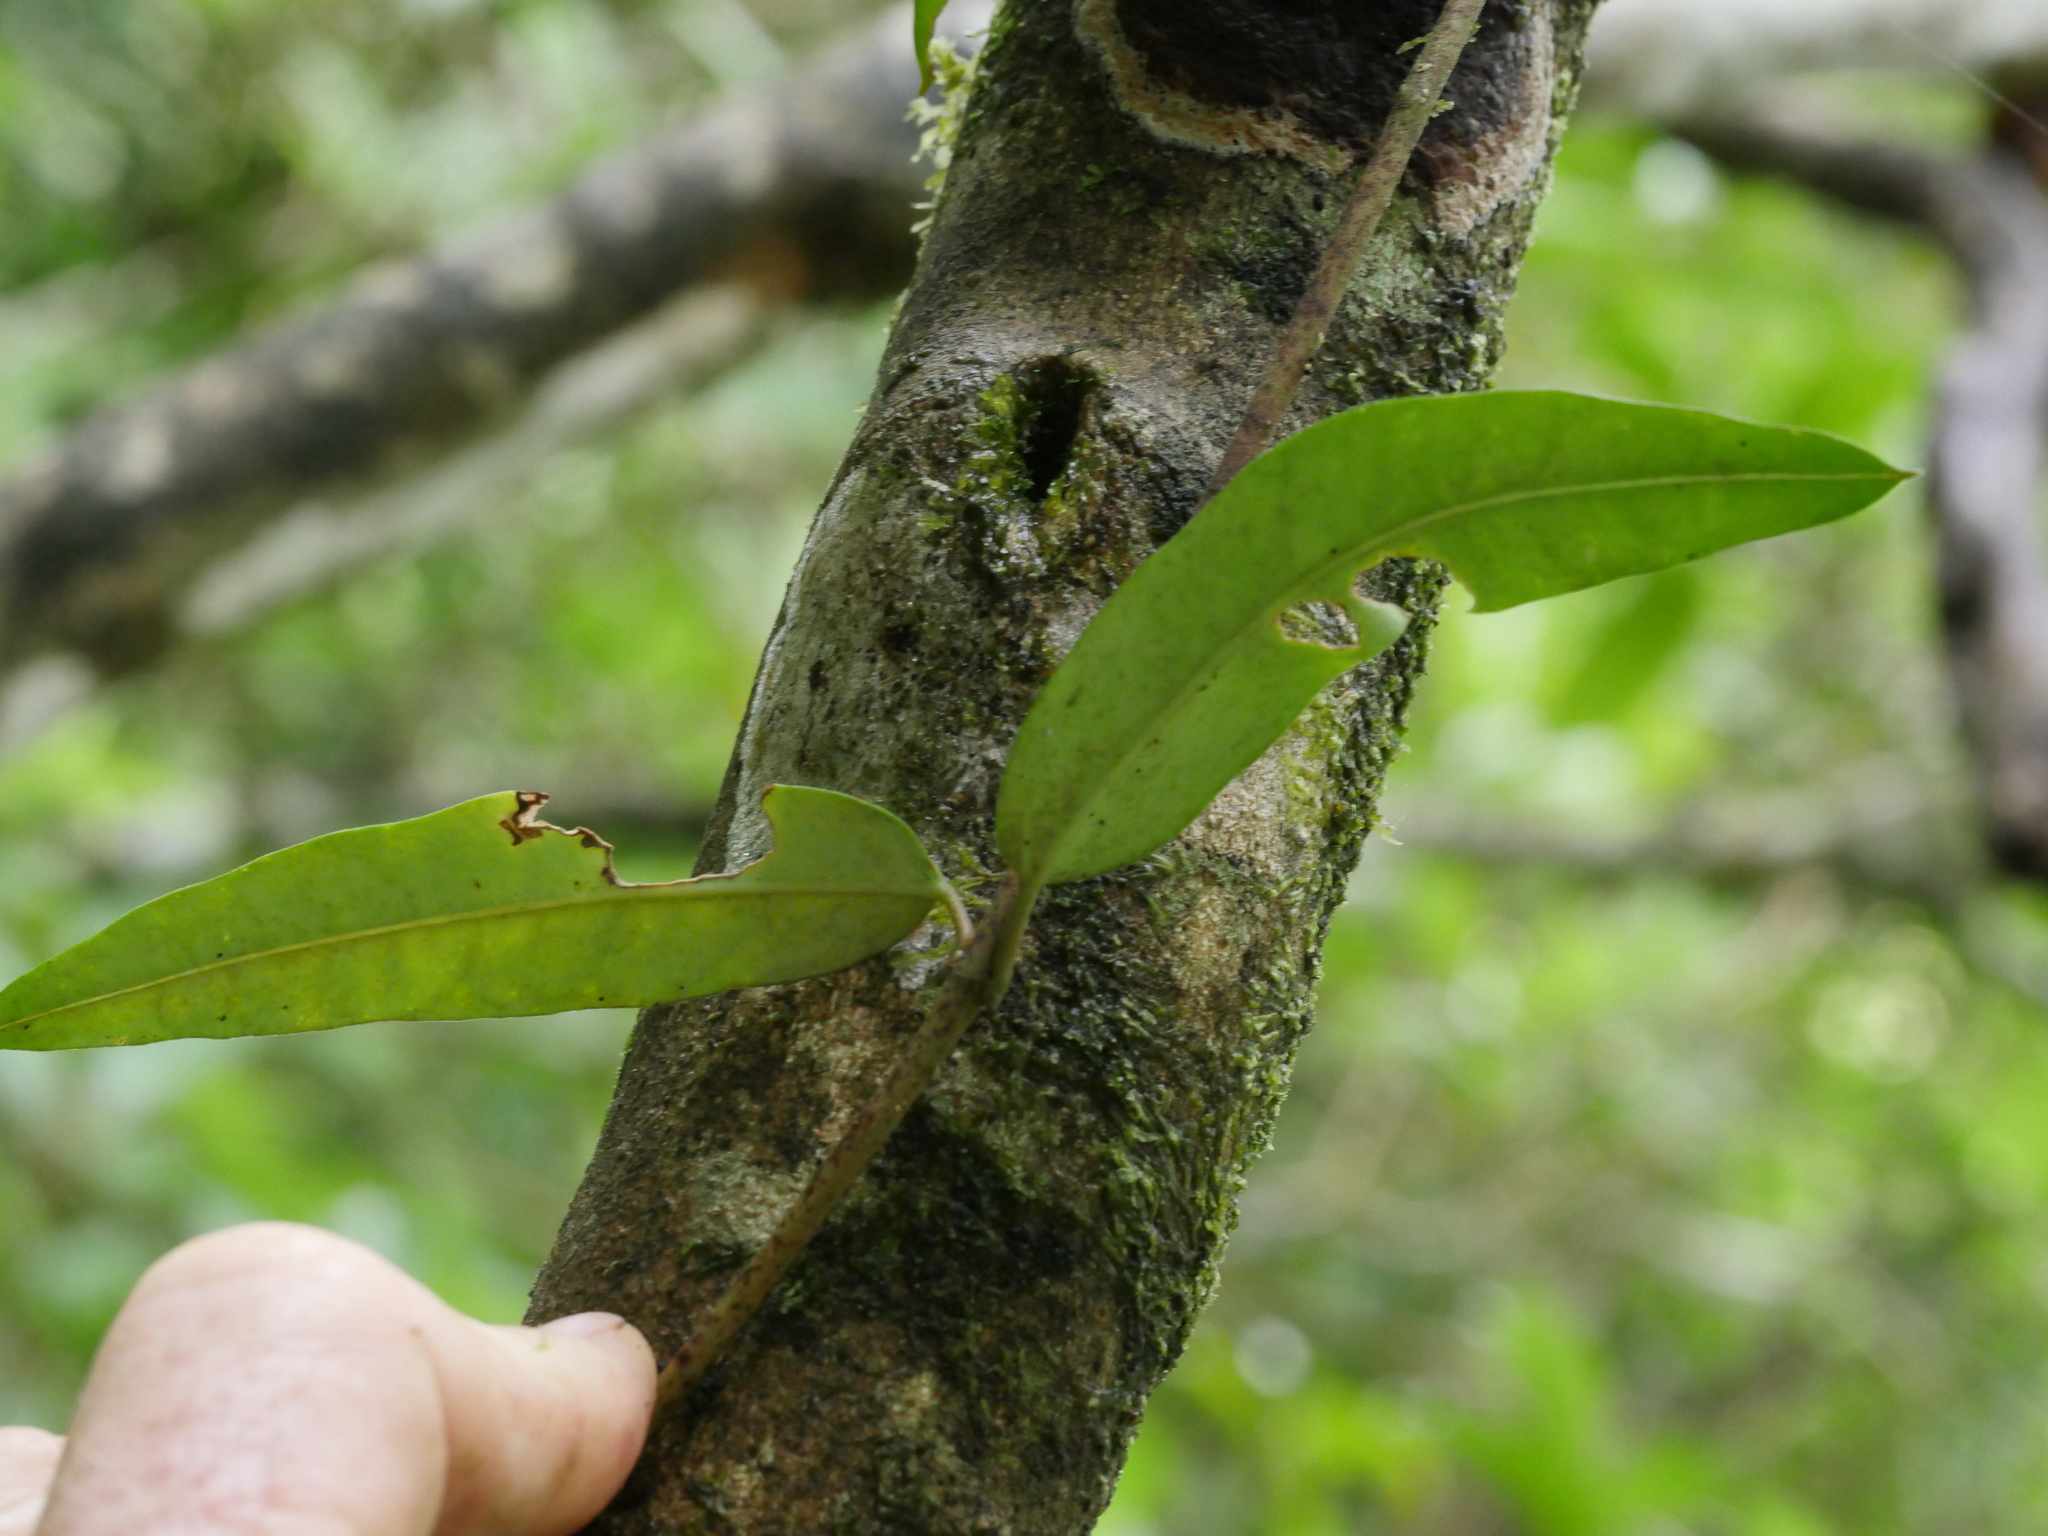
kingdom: Plantae
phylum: Tracheophyta
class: Magnoliopsida
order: Gentianales
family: Apocynaceae
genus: Parsonsia
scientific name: Parsonsia heterophylla
